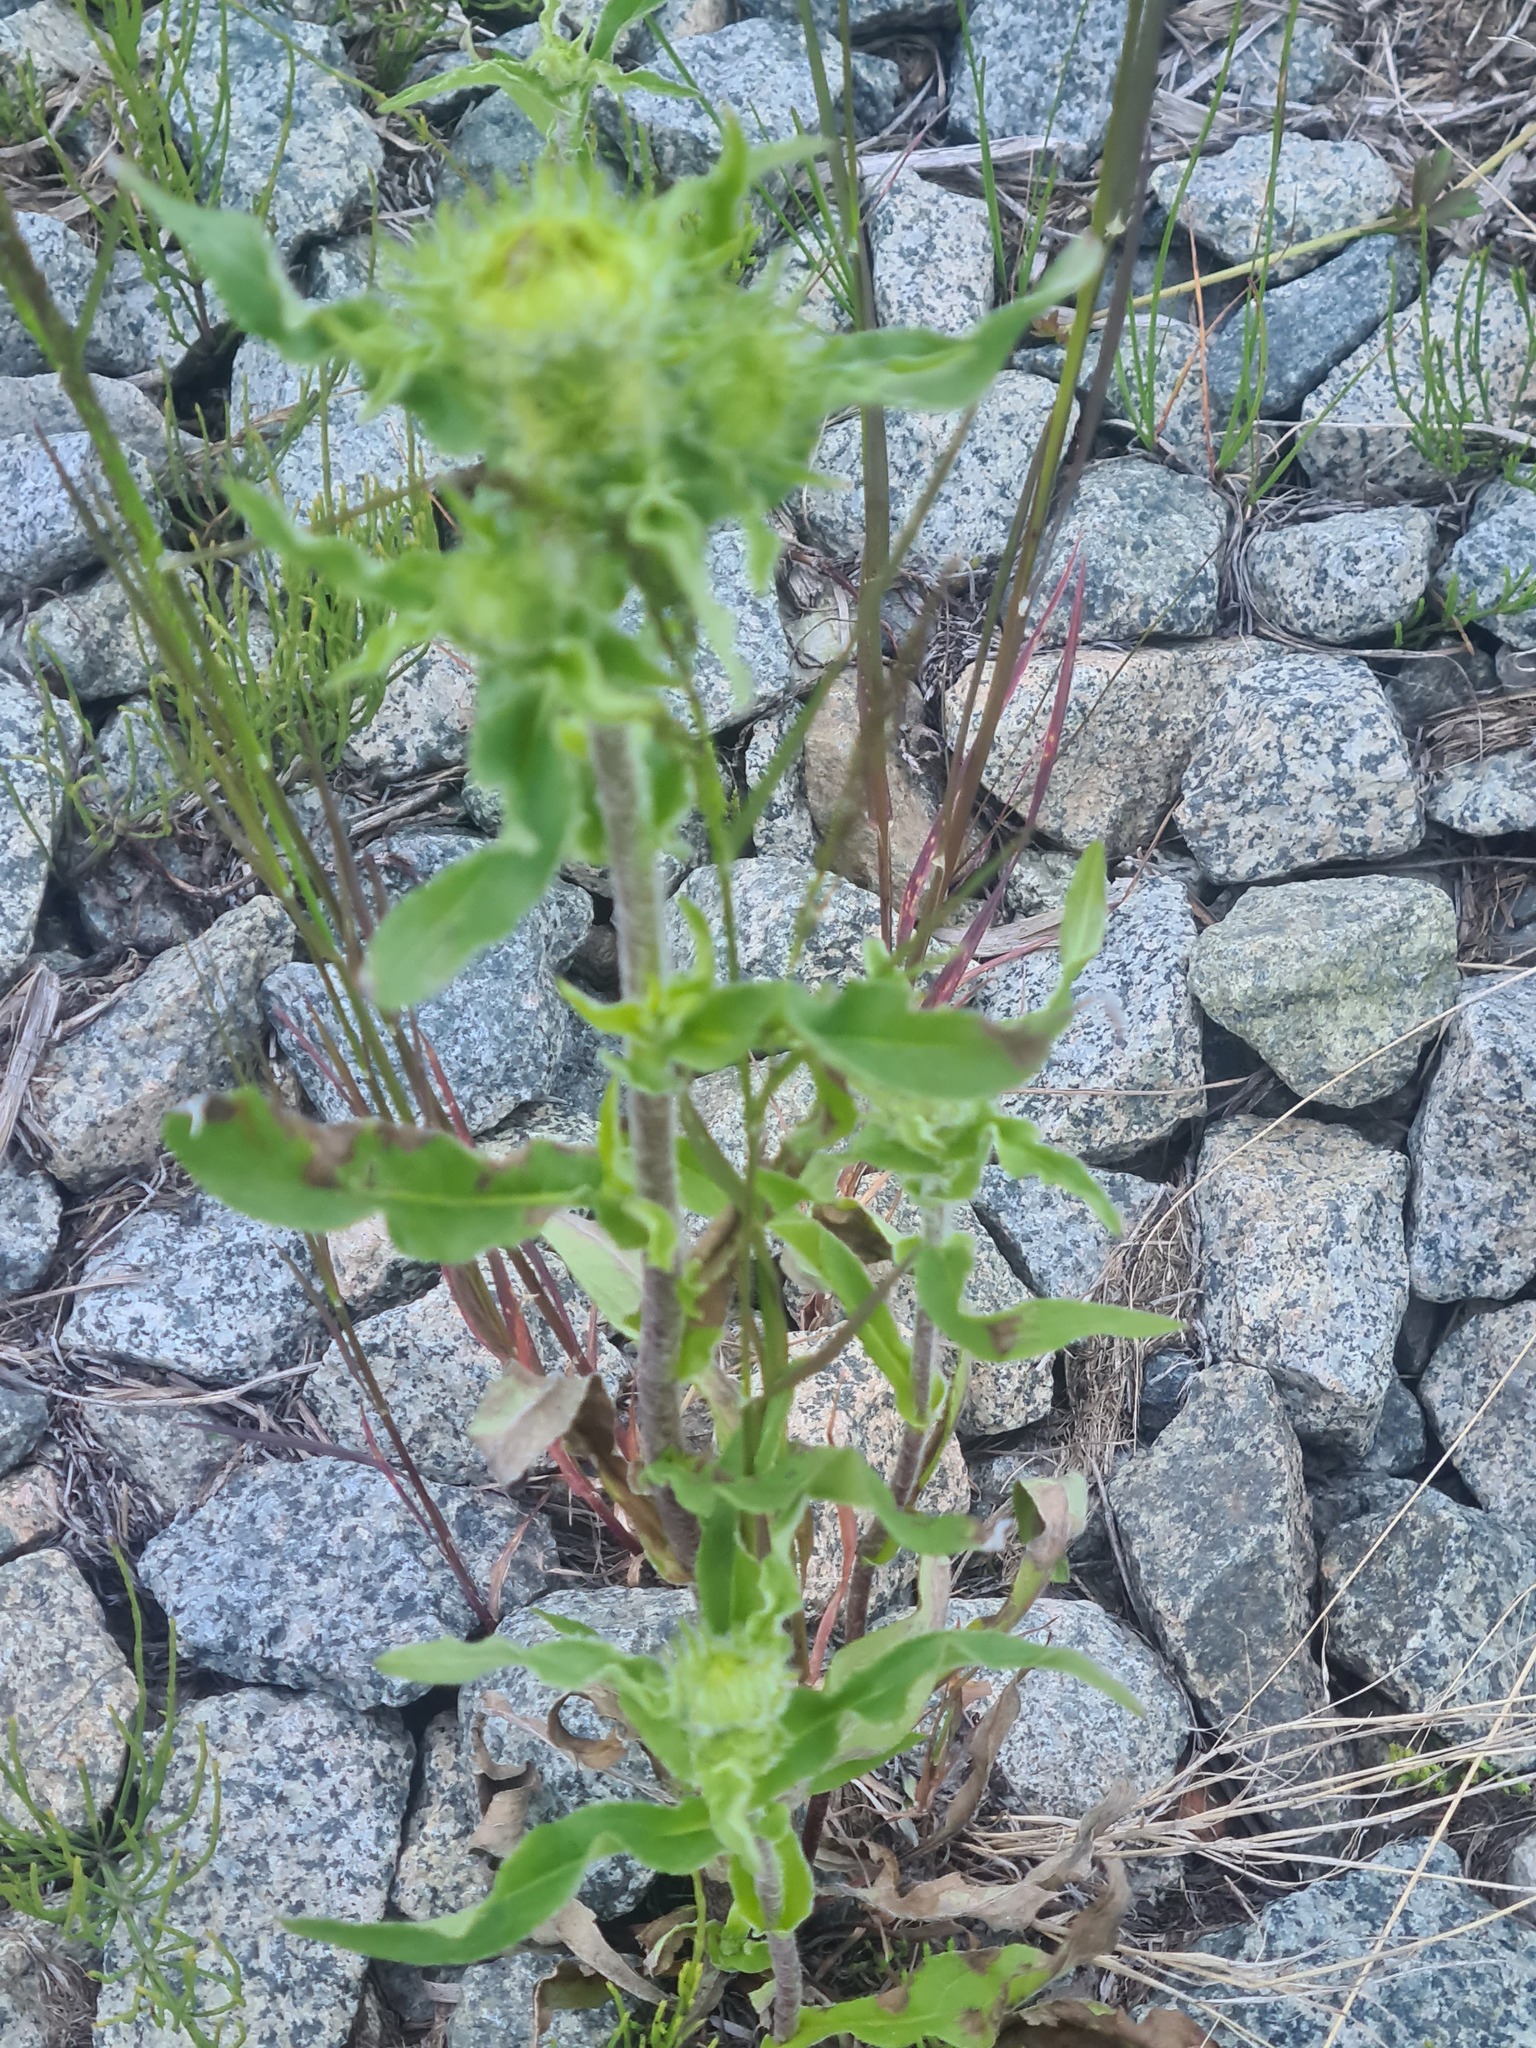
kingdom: Plantae
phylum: Tracheophyta
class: Magnoliopsida
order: Asterales
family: Asteraceae
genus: Pentanema
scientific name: Pentanema britannicum
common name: British elecampane
